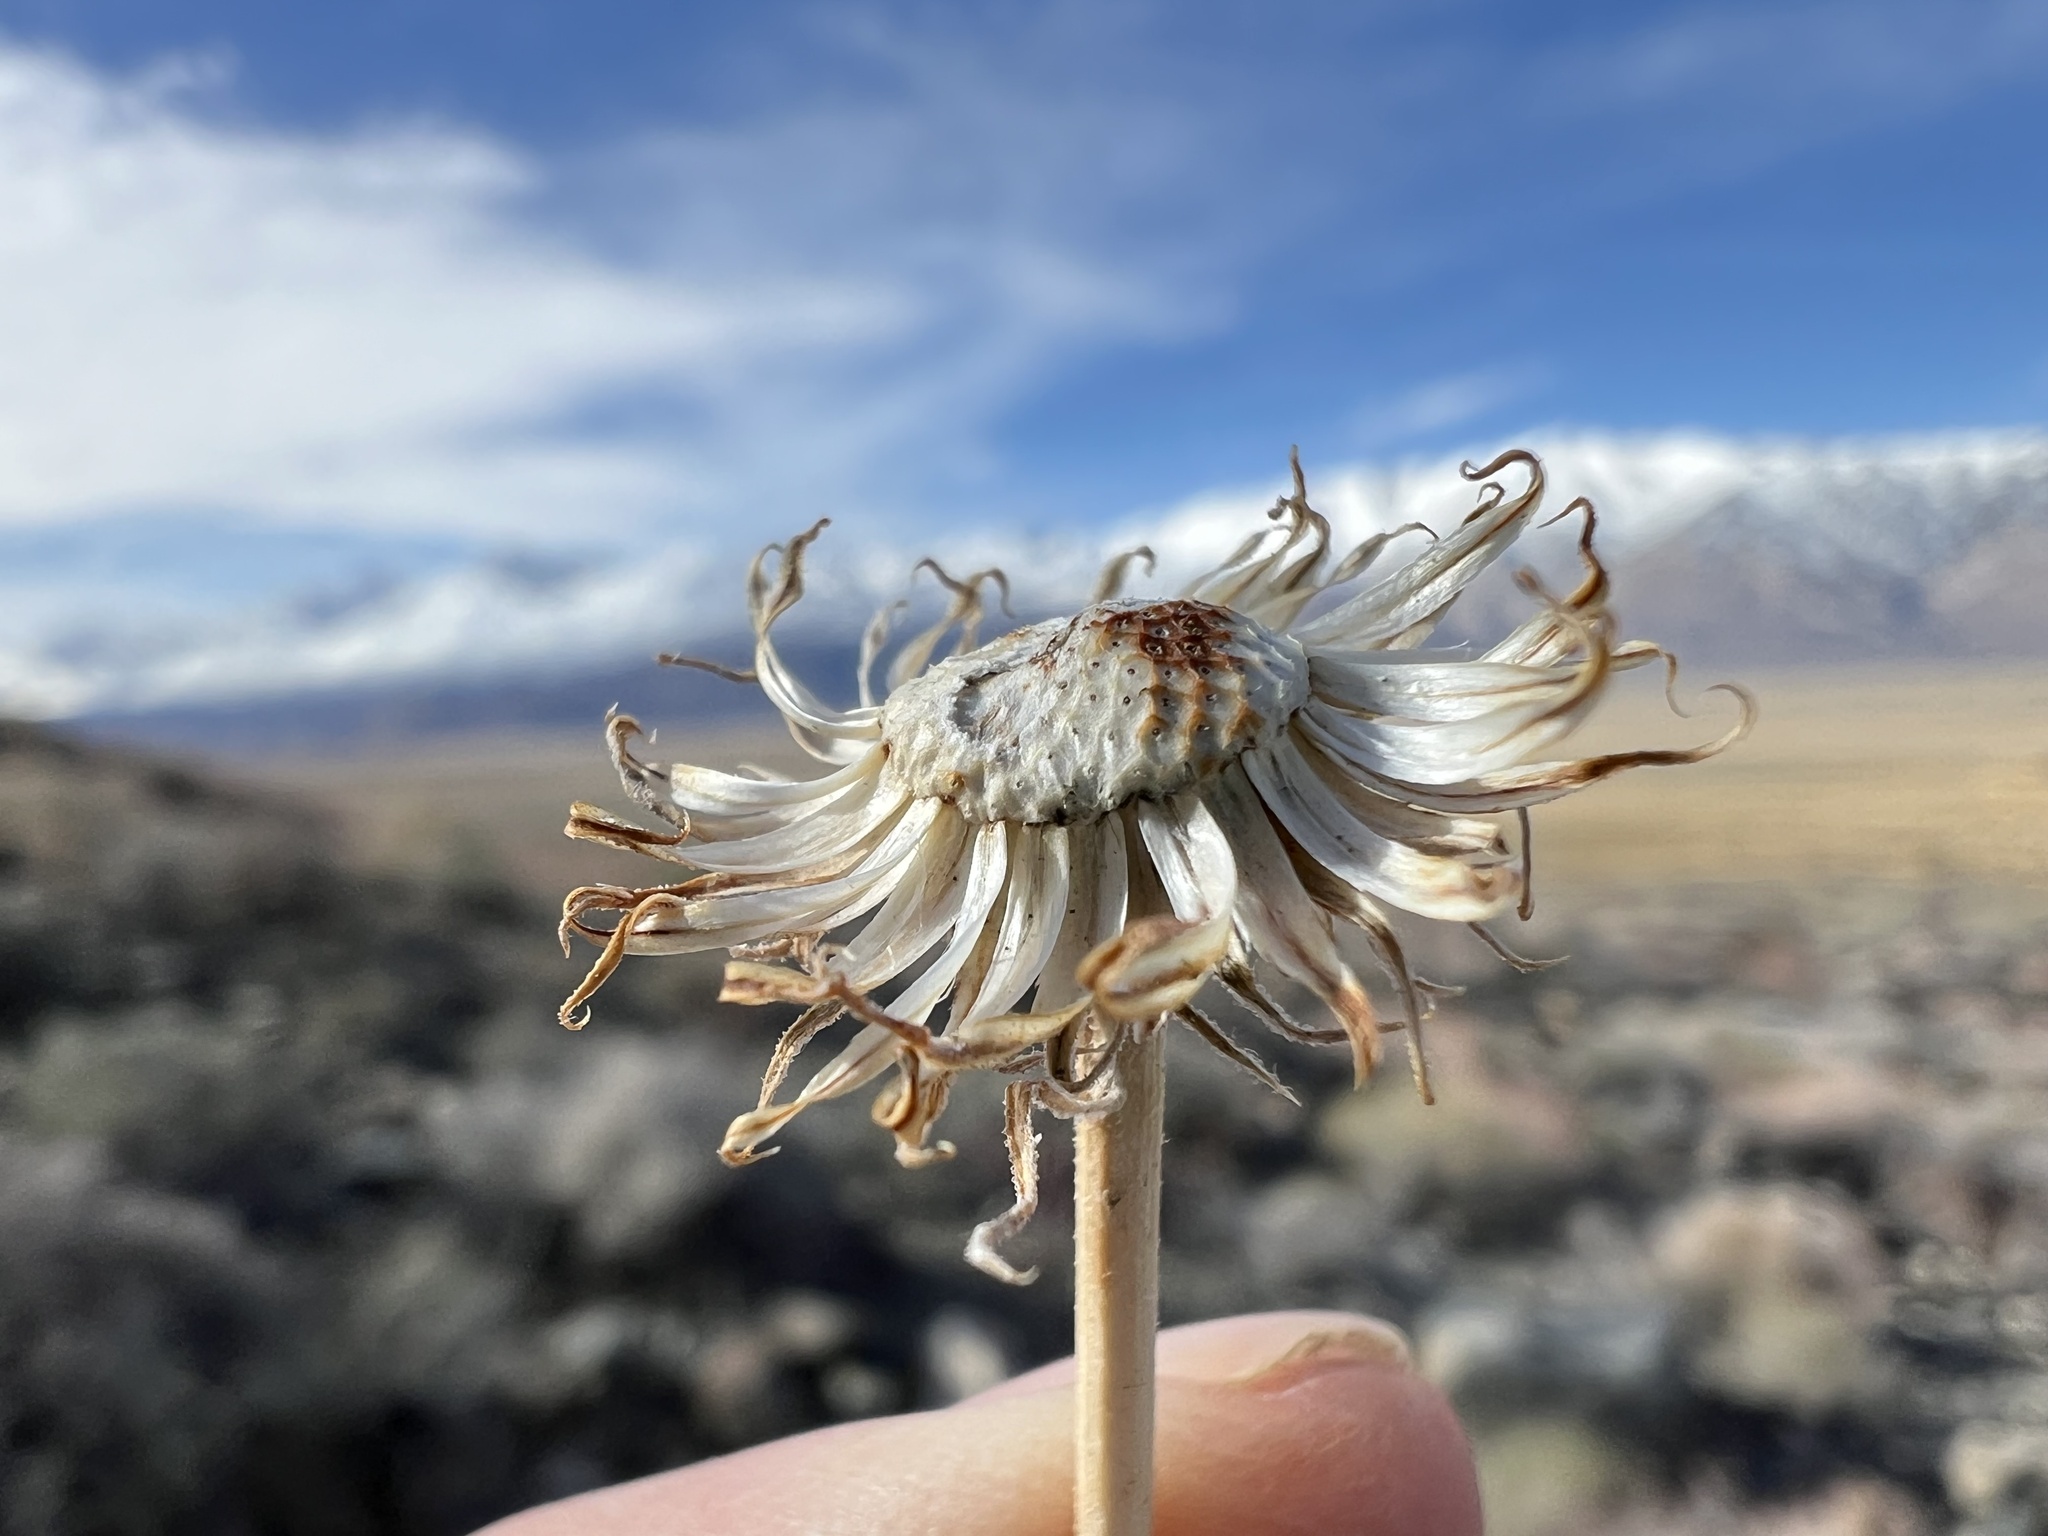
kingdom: Plantae
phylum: Tracheophyta
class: Magnoliopsida
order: Asterales
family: Asteraceae
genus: Xylorhiza
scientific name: Xylorhiza tortifolia
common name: Hurt-leaf woody-aster
